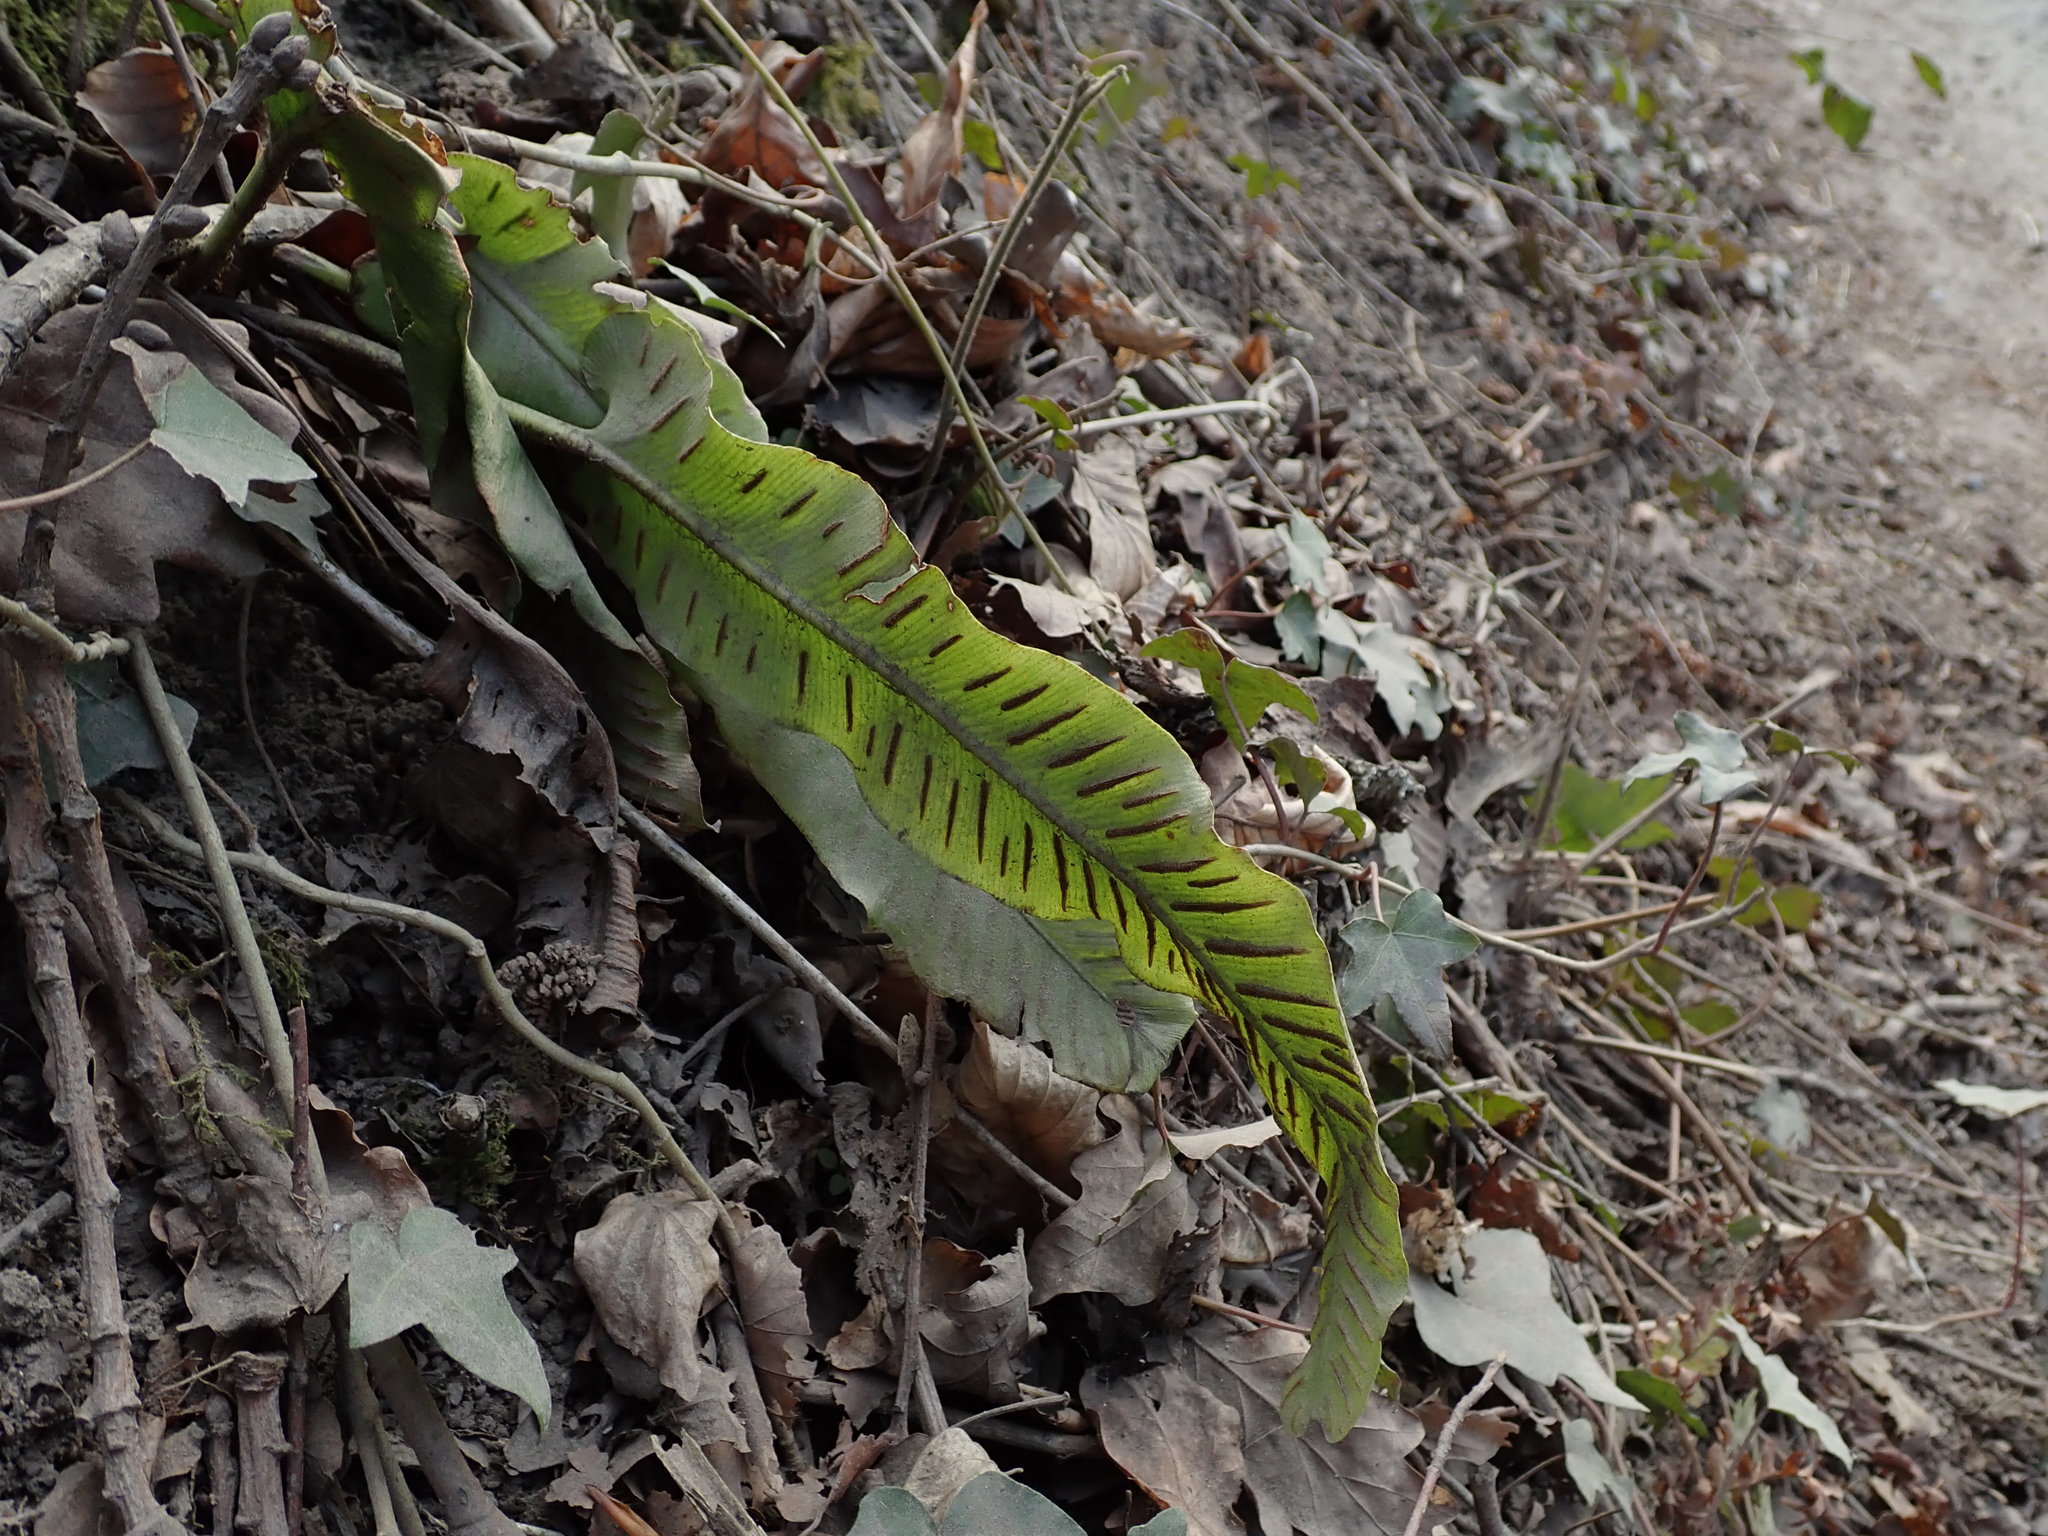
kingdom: Plantae
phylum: Tracheophyta
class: Polypodiopsida
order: Polypodiales
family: Aspleniaceae
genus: Asplenium
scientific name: Asplenium scolopendrium
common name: Hart's-tongue fern
